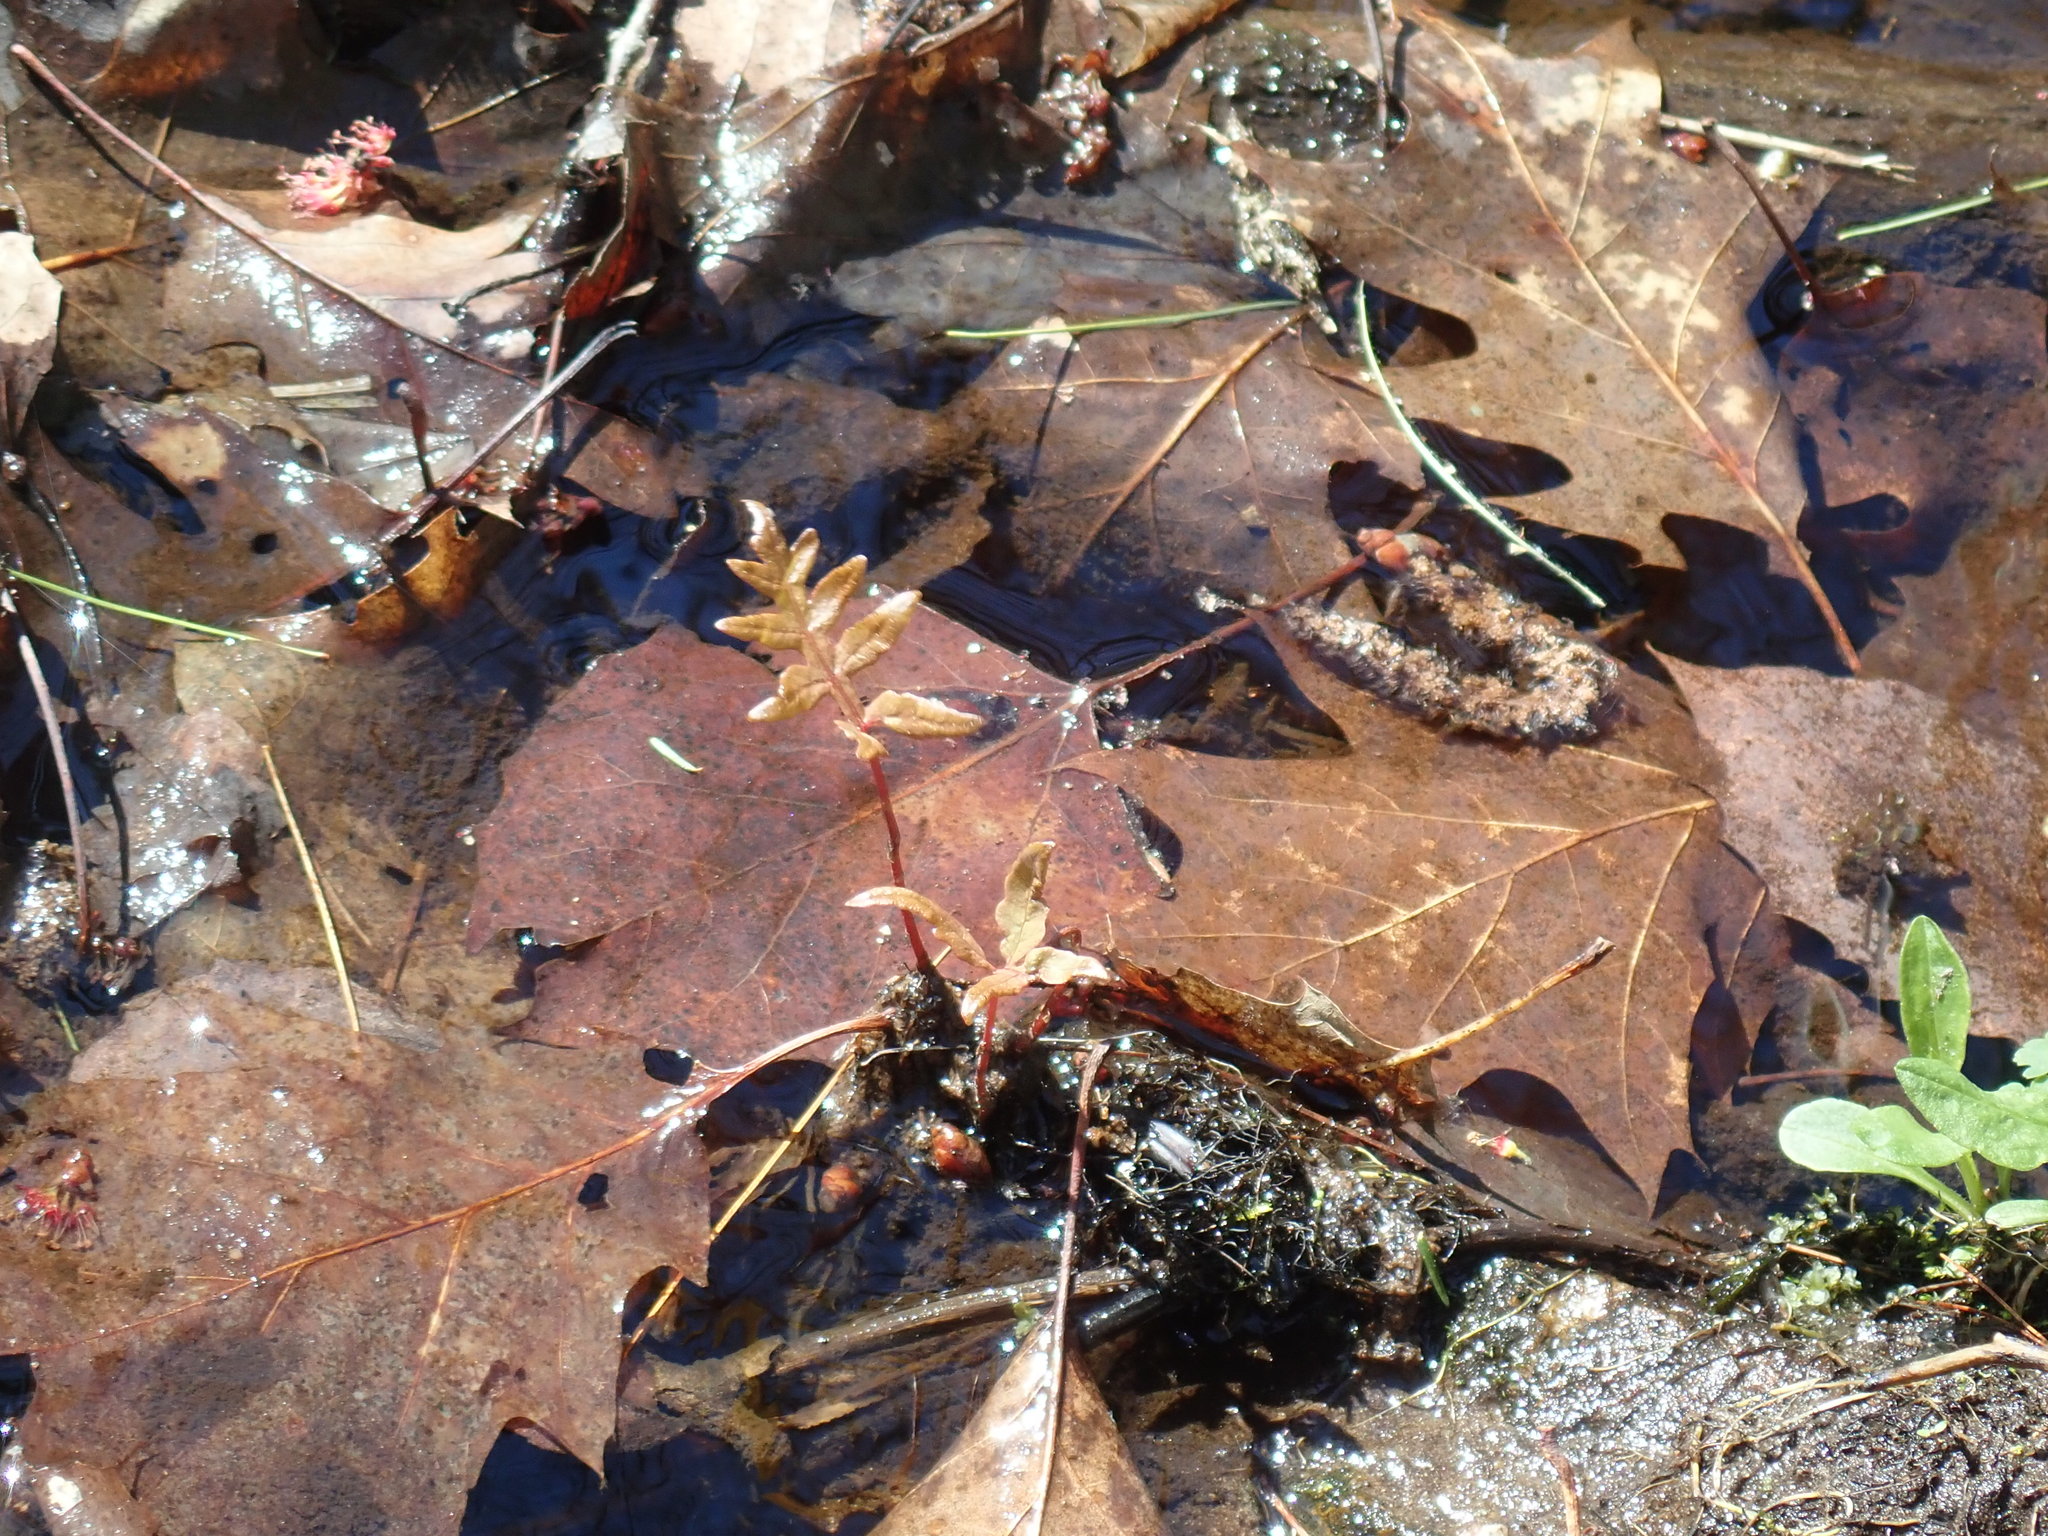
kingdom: Plantae
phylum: Tracheophyta
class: Polypodiopsida
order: Polypodiales
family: Onocleaceae
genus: Onoclea
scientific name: Onoclea sensibilis
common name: Sensitive fern
